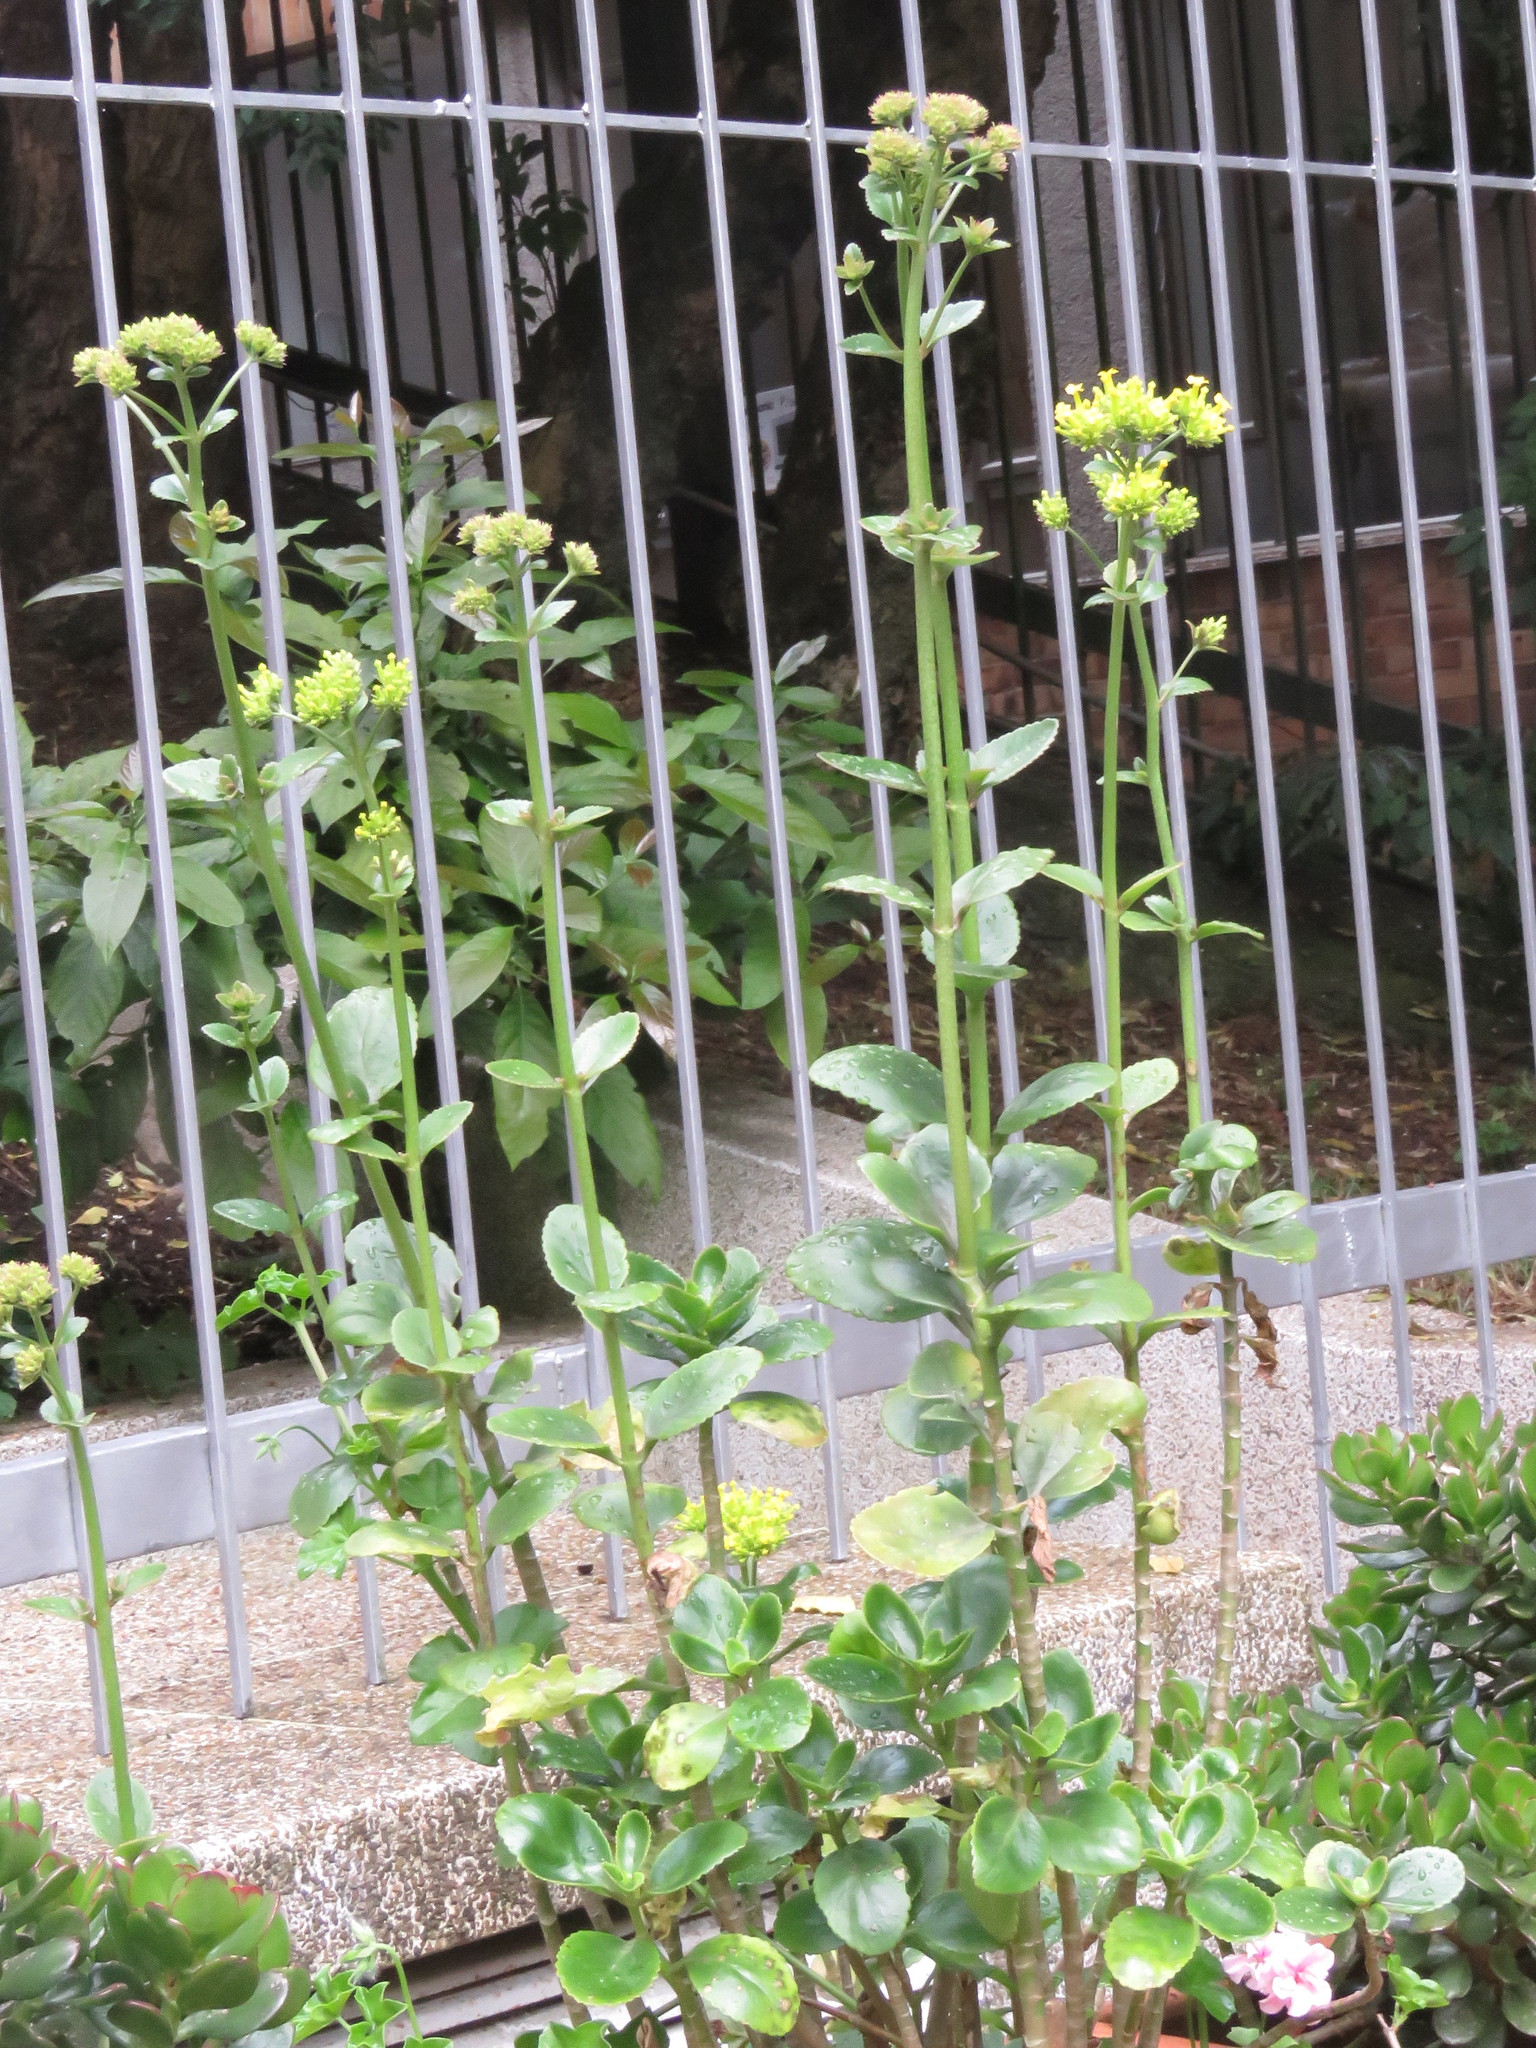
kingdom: Plantae
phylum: Tracheophyta
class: Magnoliopsida
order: Saxifragales
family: Crassulaceae
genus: Kalanchoe
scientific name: Kalanchoe densiflora
